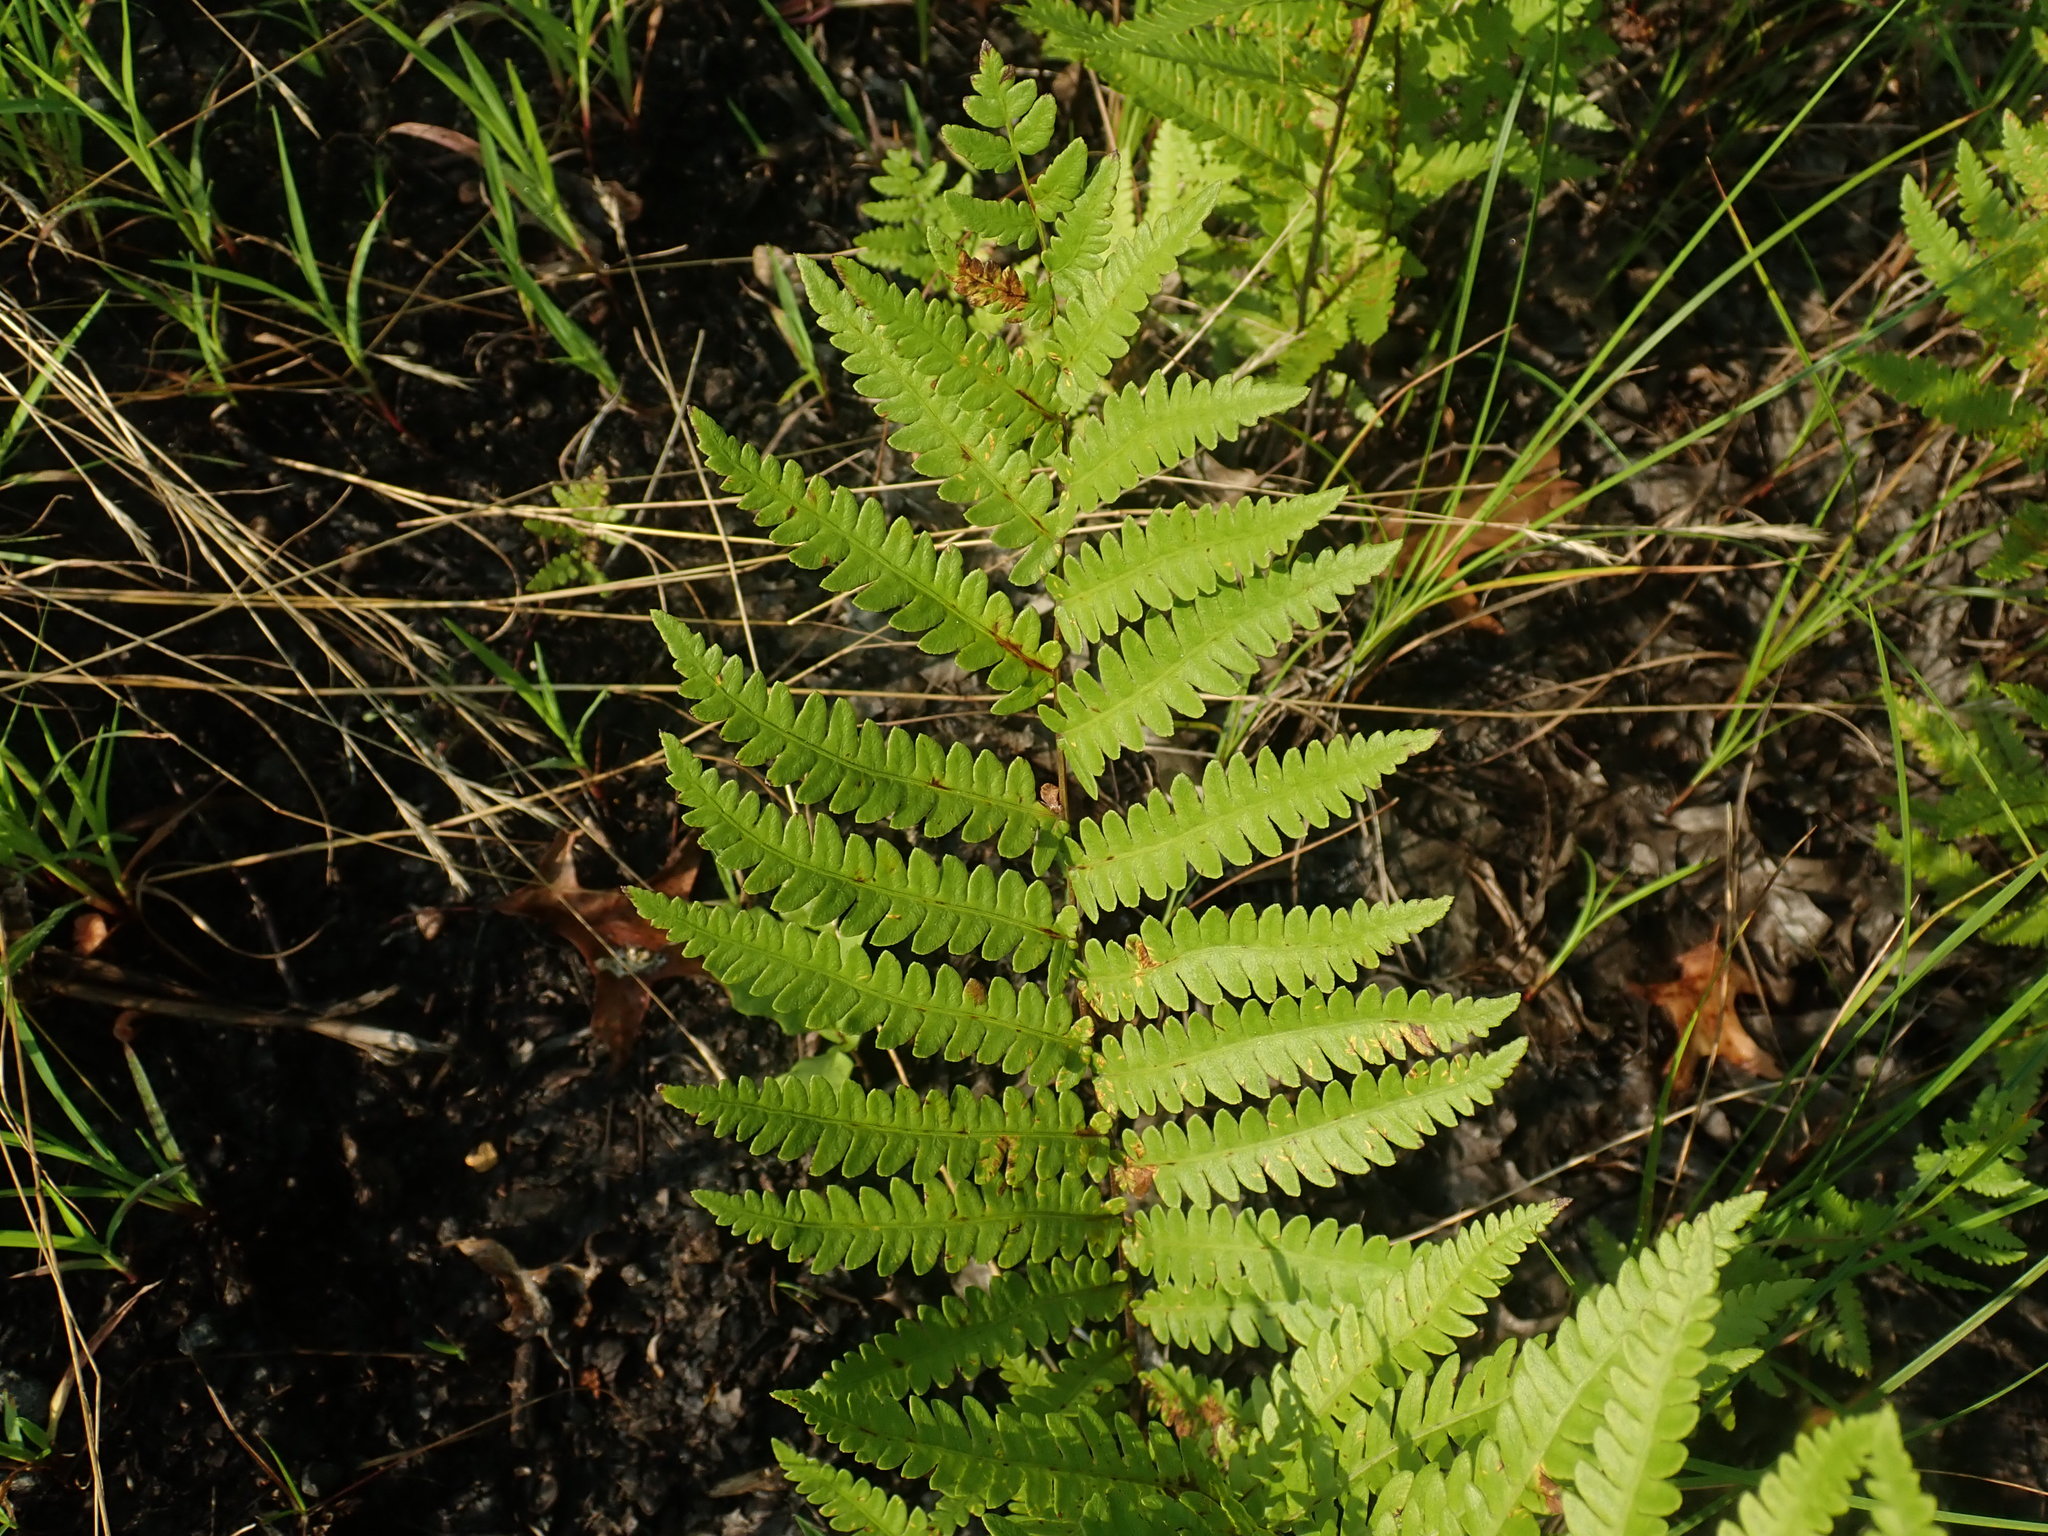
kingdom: Plantae
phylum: Tracheophyta
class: Polypodiopsida
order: Polypodiales
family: Blechnaceae
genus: Anchistea
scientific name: Anchistea virginica
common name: Virginia chain fern
